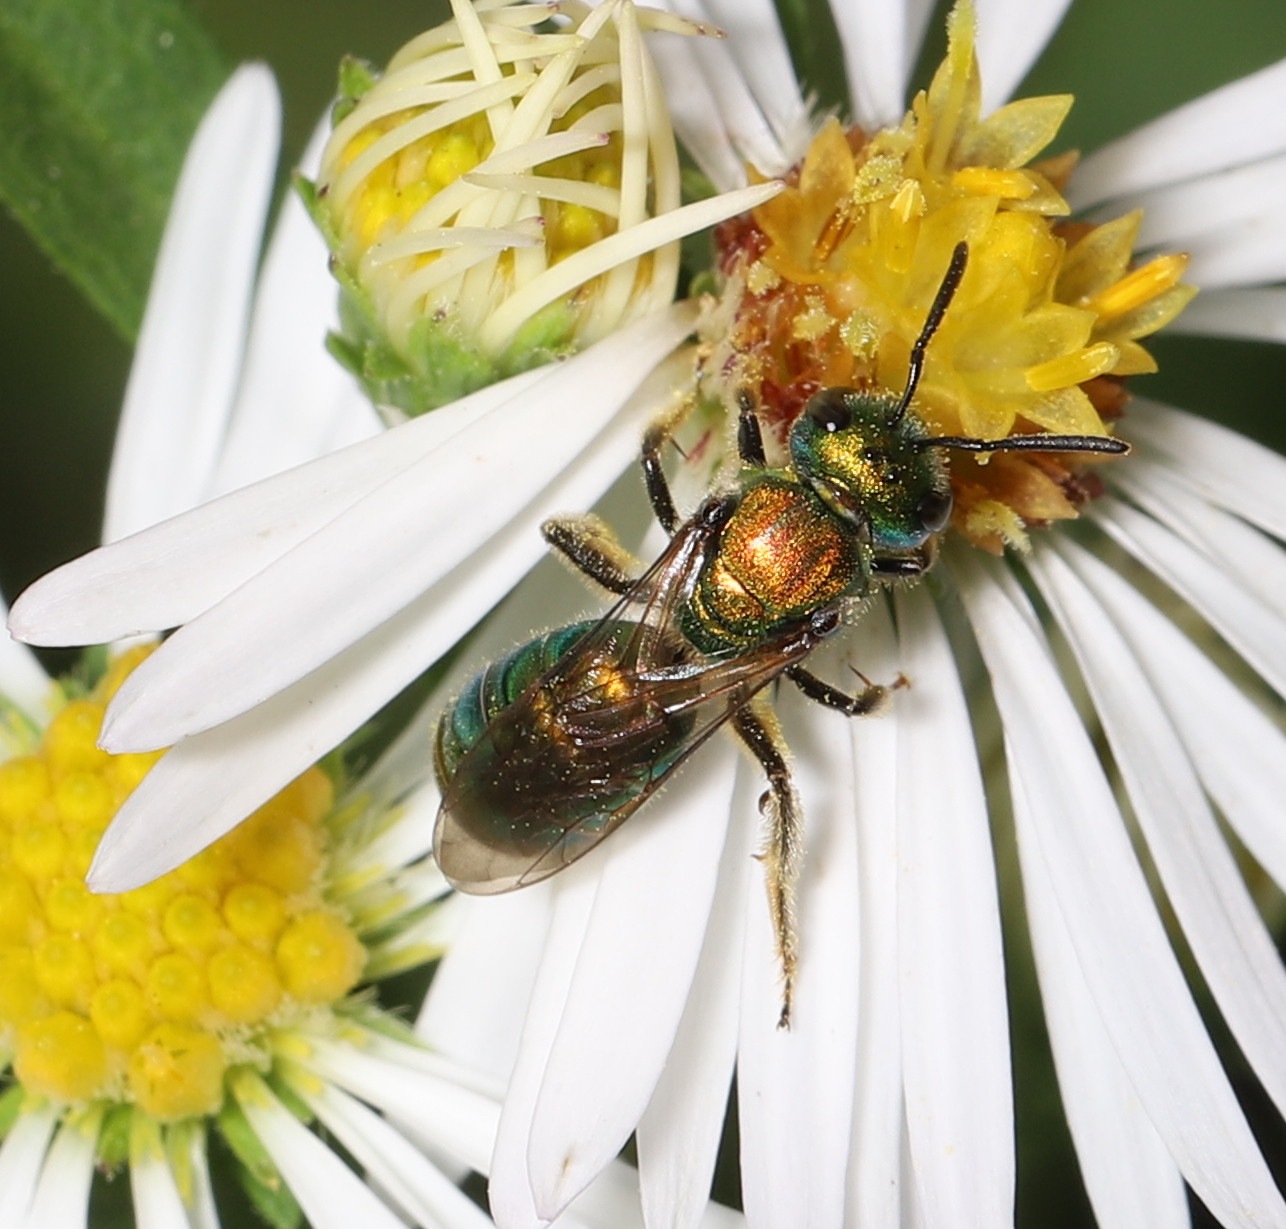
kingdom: Animalia
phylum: Arthropoda
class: Insecta
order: Hymenoptera
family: Halictidae
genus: Augochlora
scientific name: Augochlora pura
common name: Pure green sweat bee
